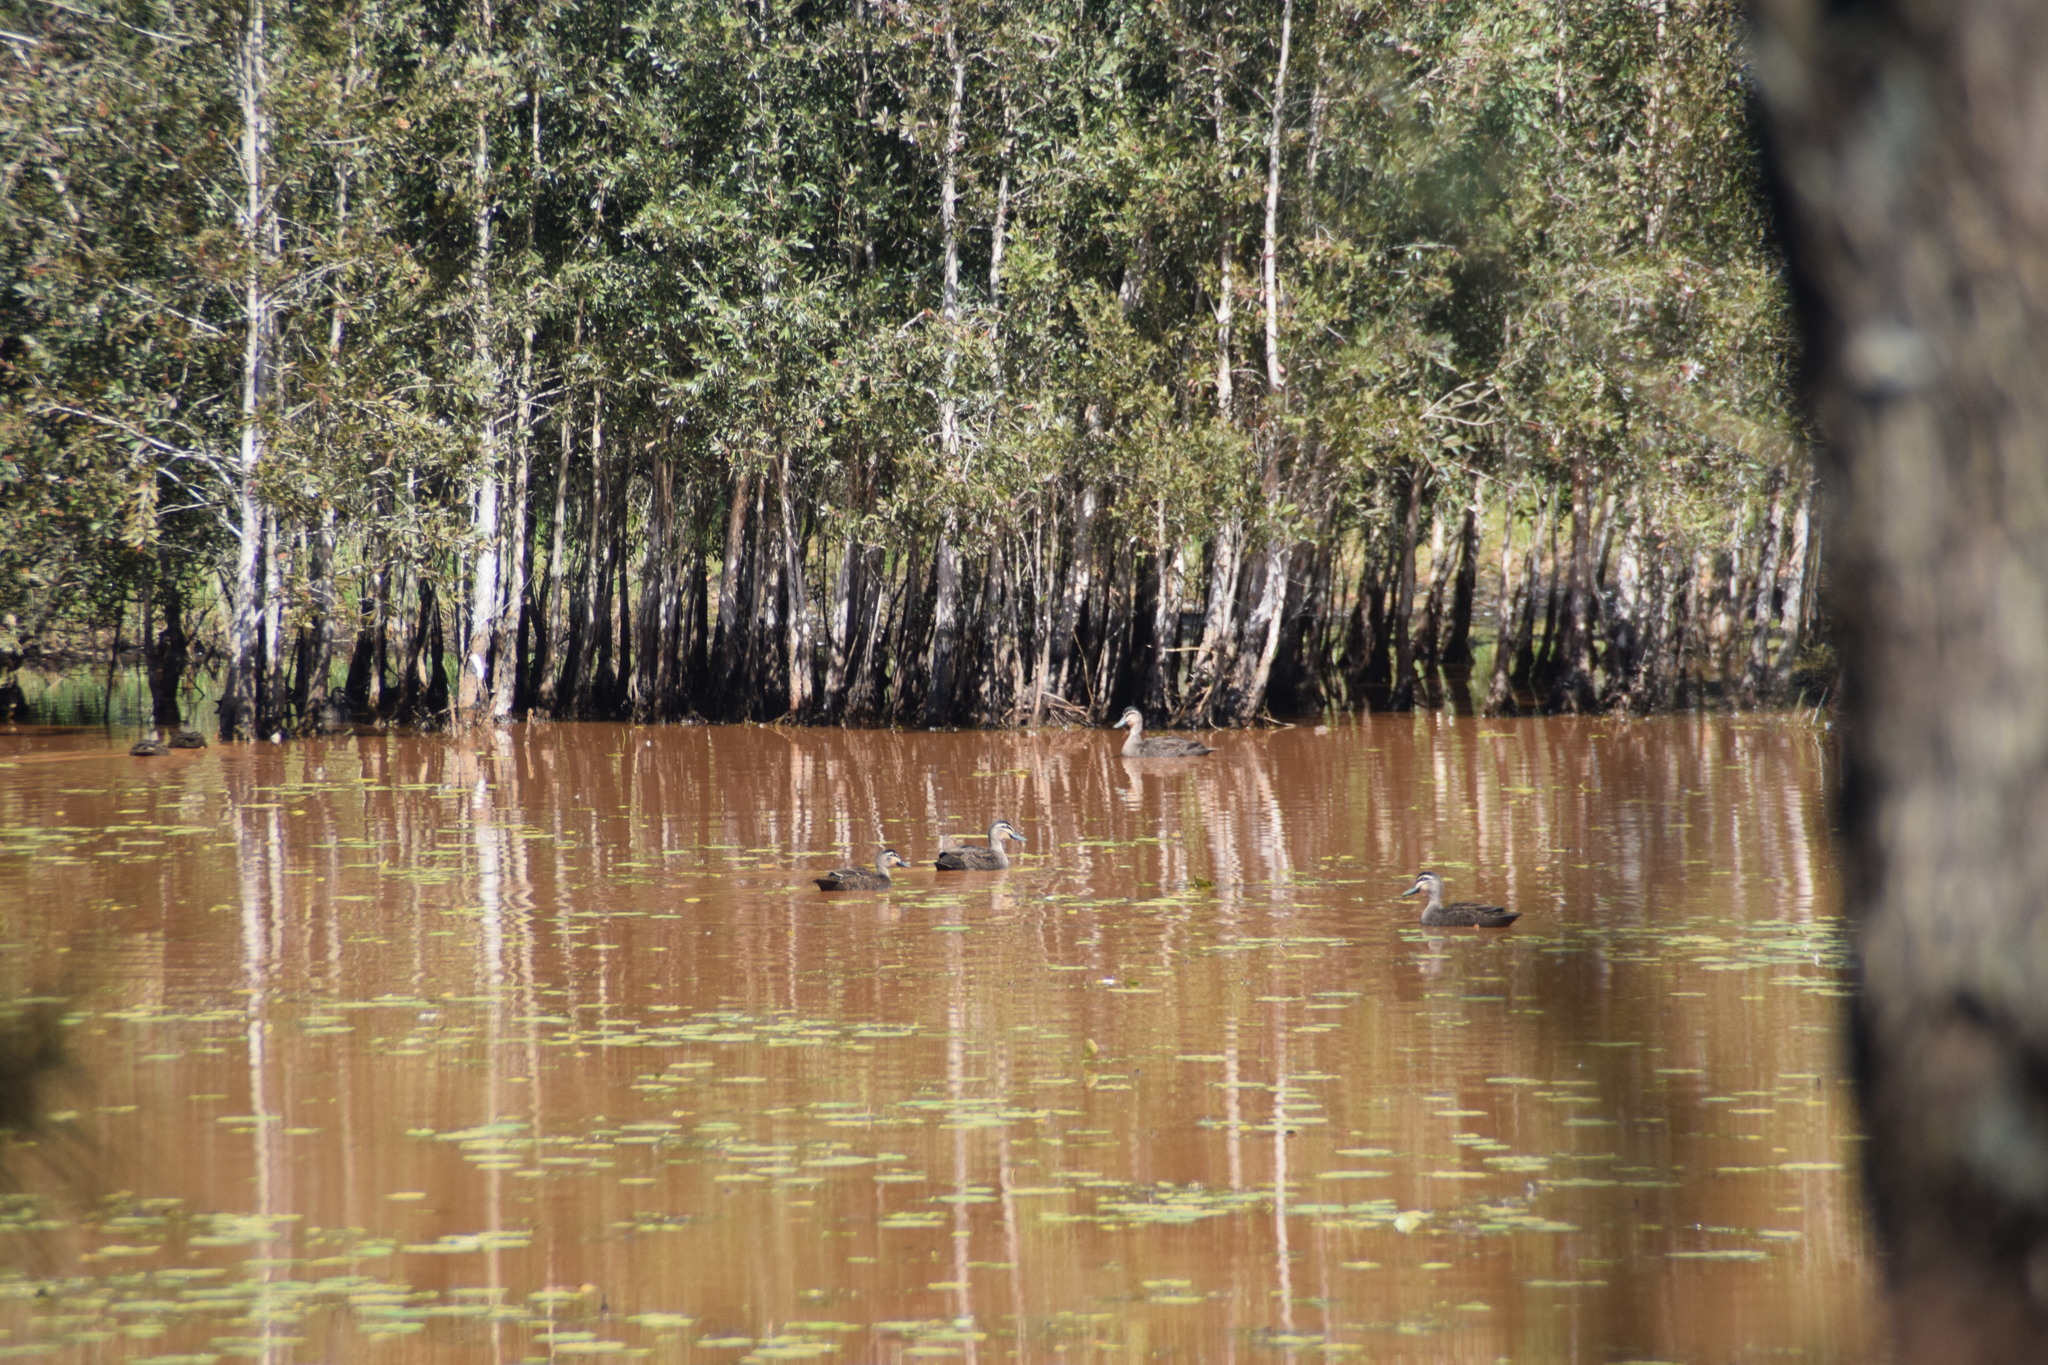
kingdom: Animalia
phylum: Chordata
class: Aves
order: Anseriformes
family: Anatidae
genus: Anas
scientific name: Anas superciliosa
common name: Pacific black duck
